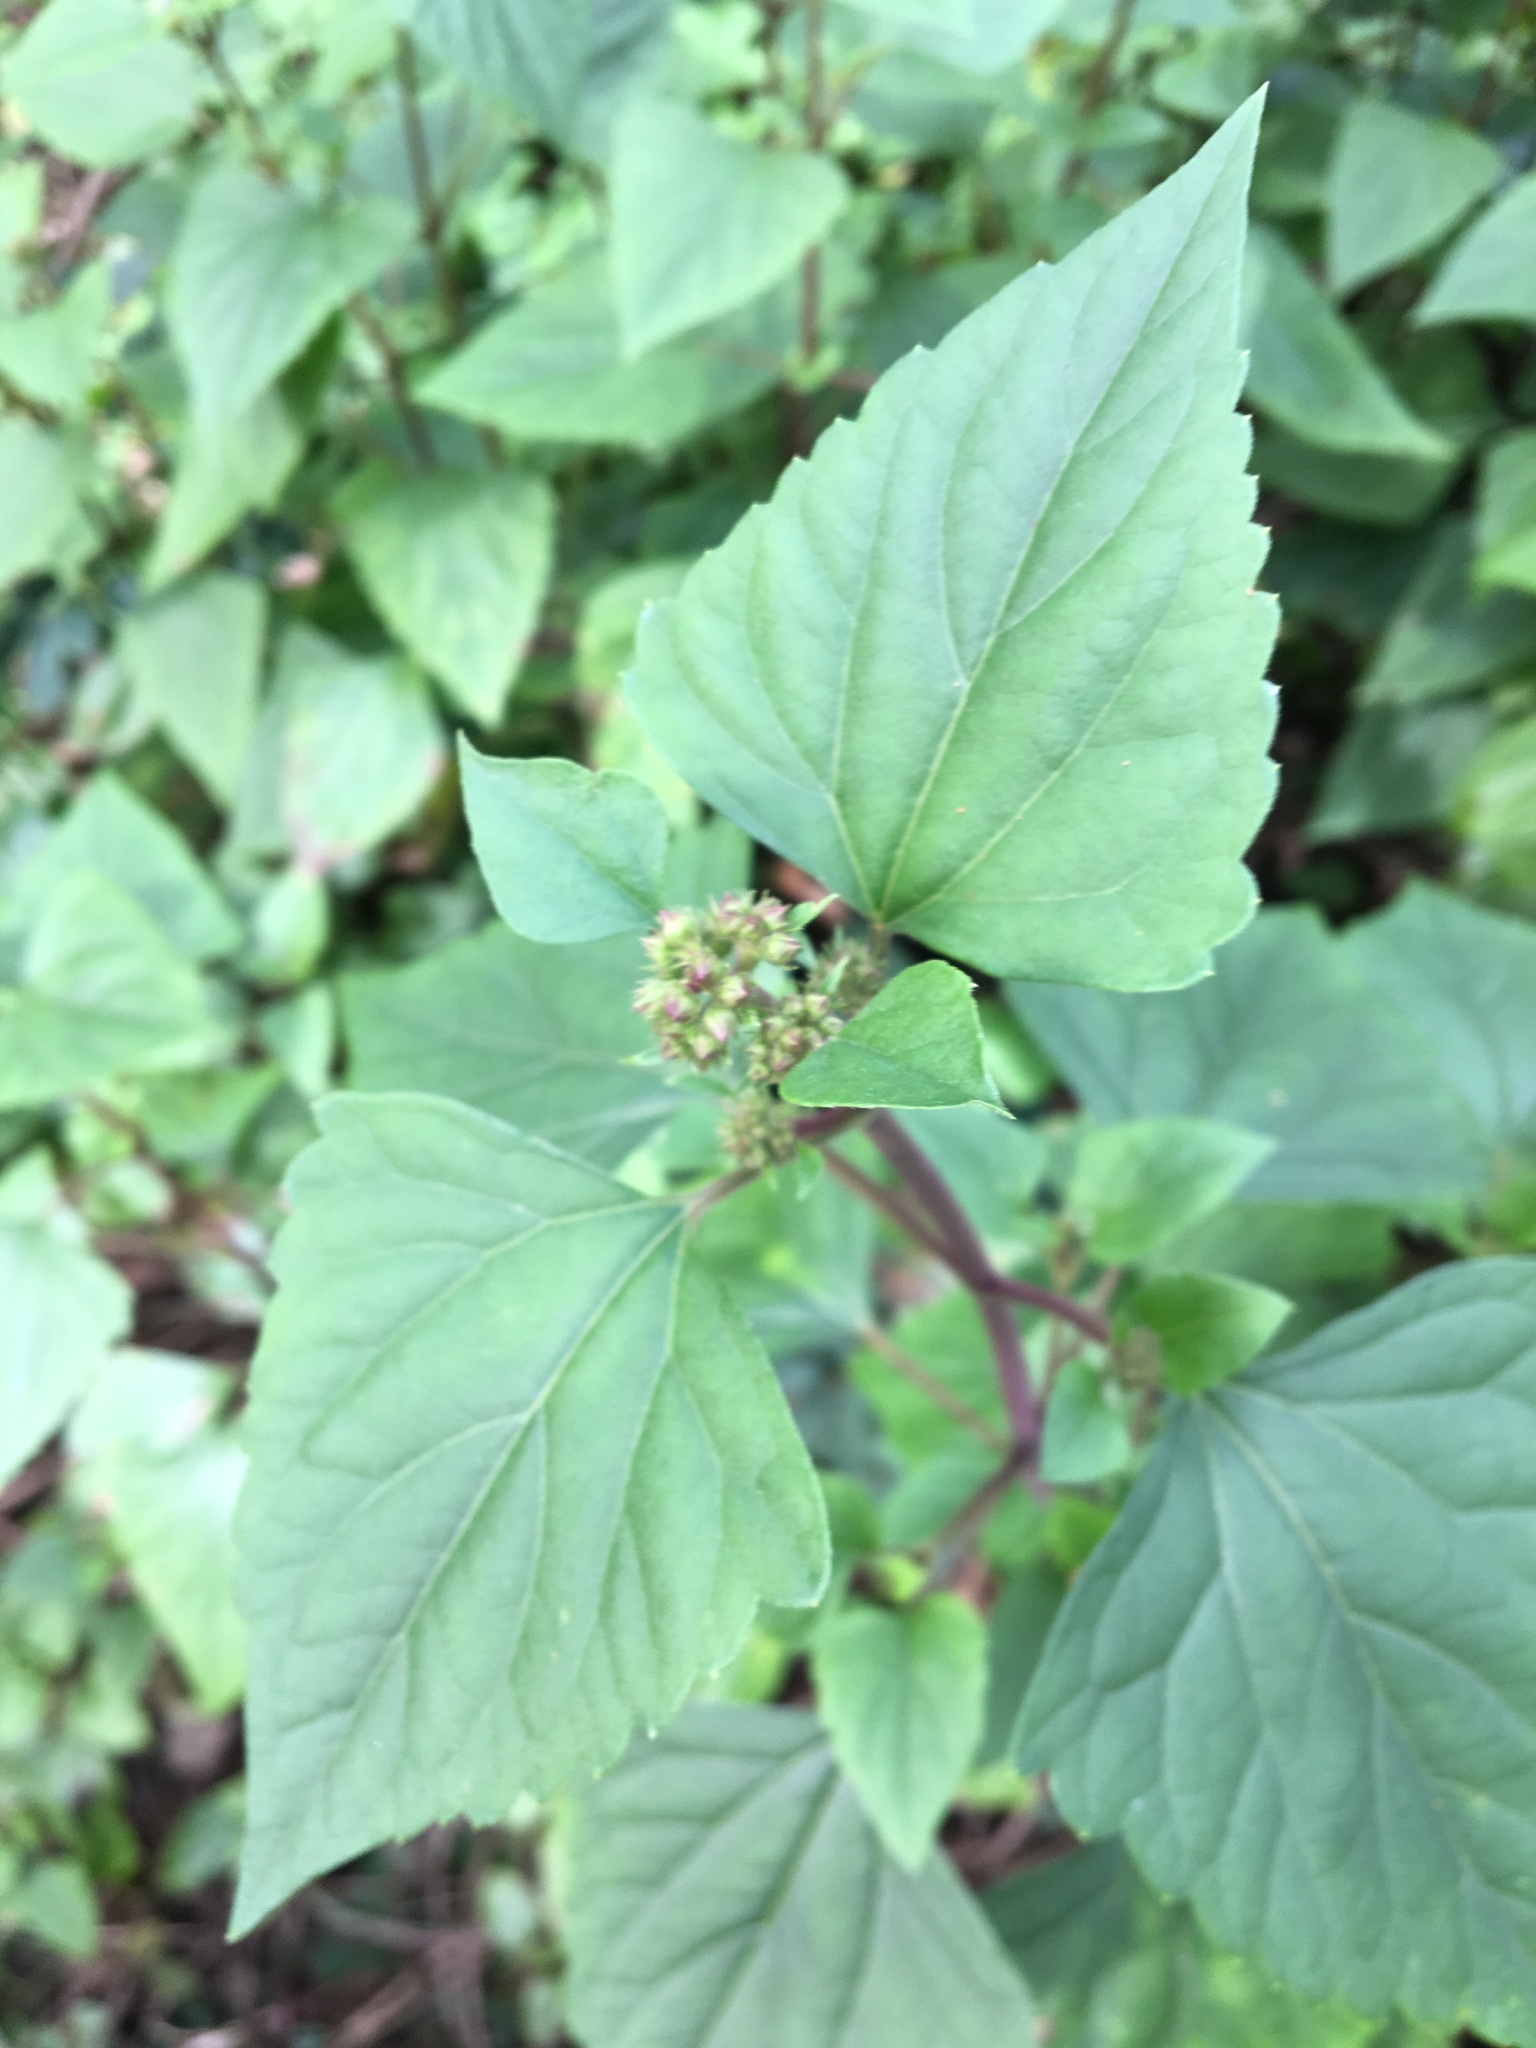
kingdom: Plantae
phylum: Tracheophyta
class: Magnoliopsida
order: Asterales
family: Asteraceae
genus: Ageratina
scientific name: Ageratina adenophora
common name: Sticky snakeroot
